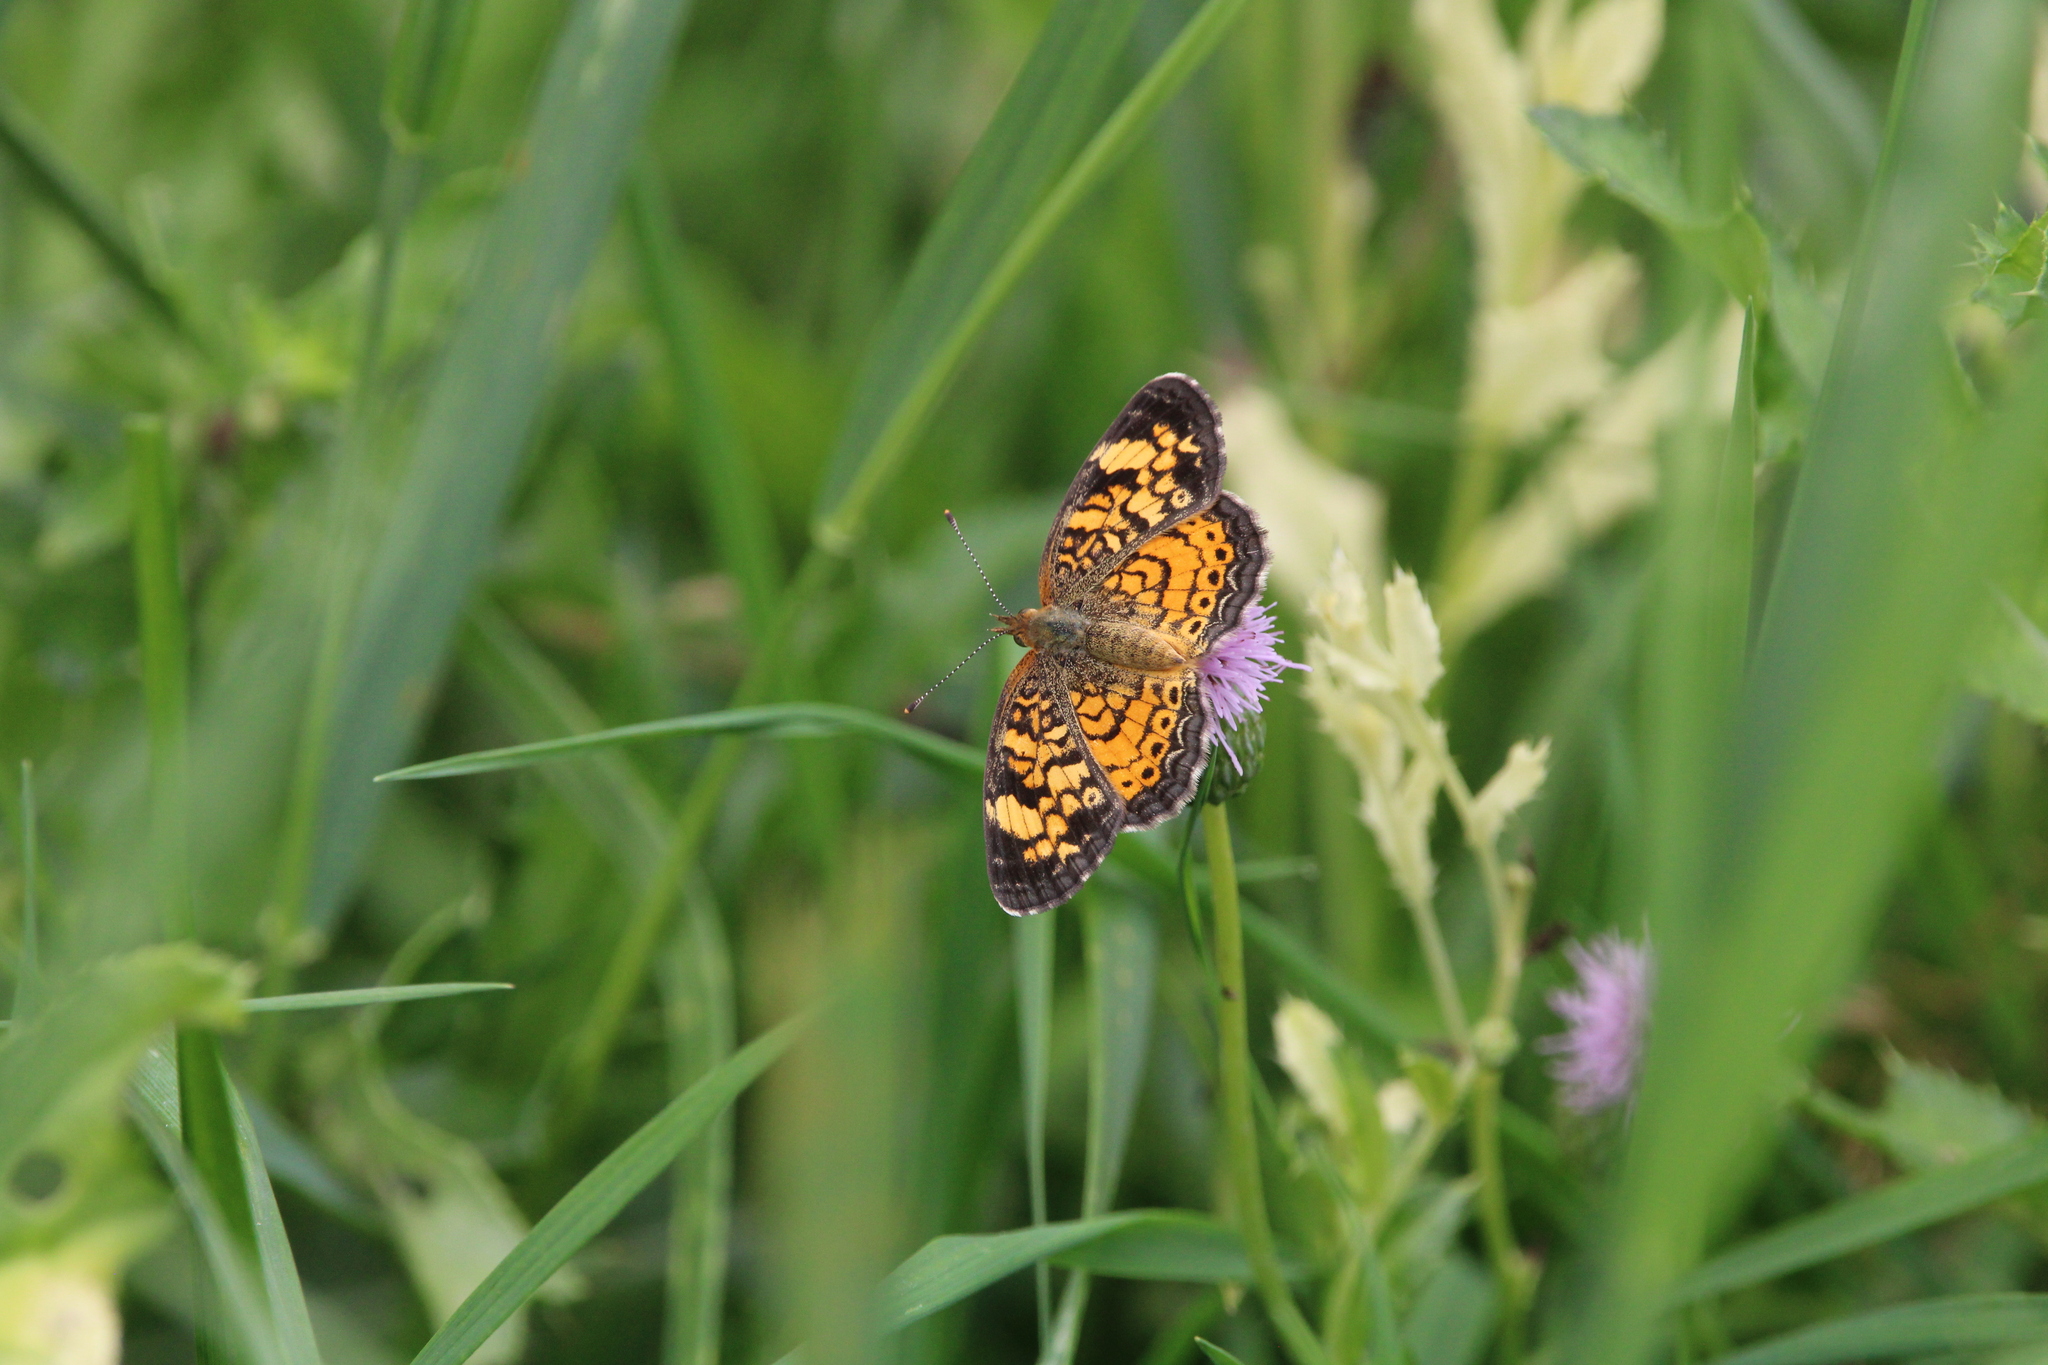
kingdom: Animalia
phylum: Arthropoda
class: Insecta
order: Lepidoptera
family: Nymphalidae
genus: Phyciodes
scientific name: Phyciodes tharos
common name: Pearl crescent
